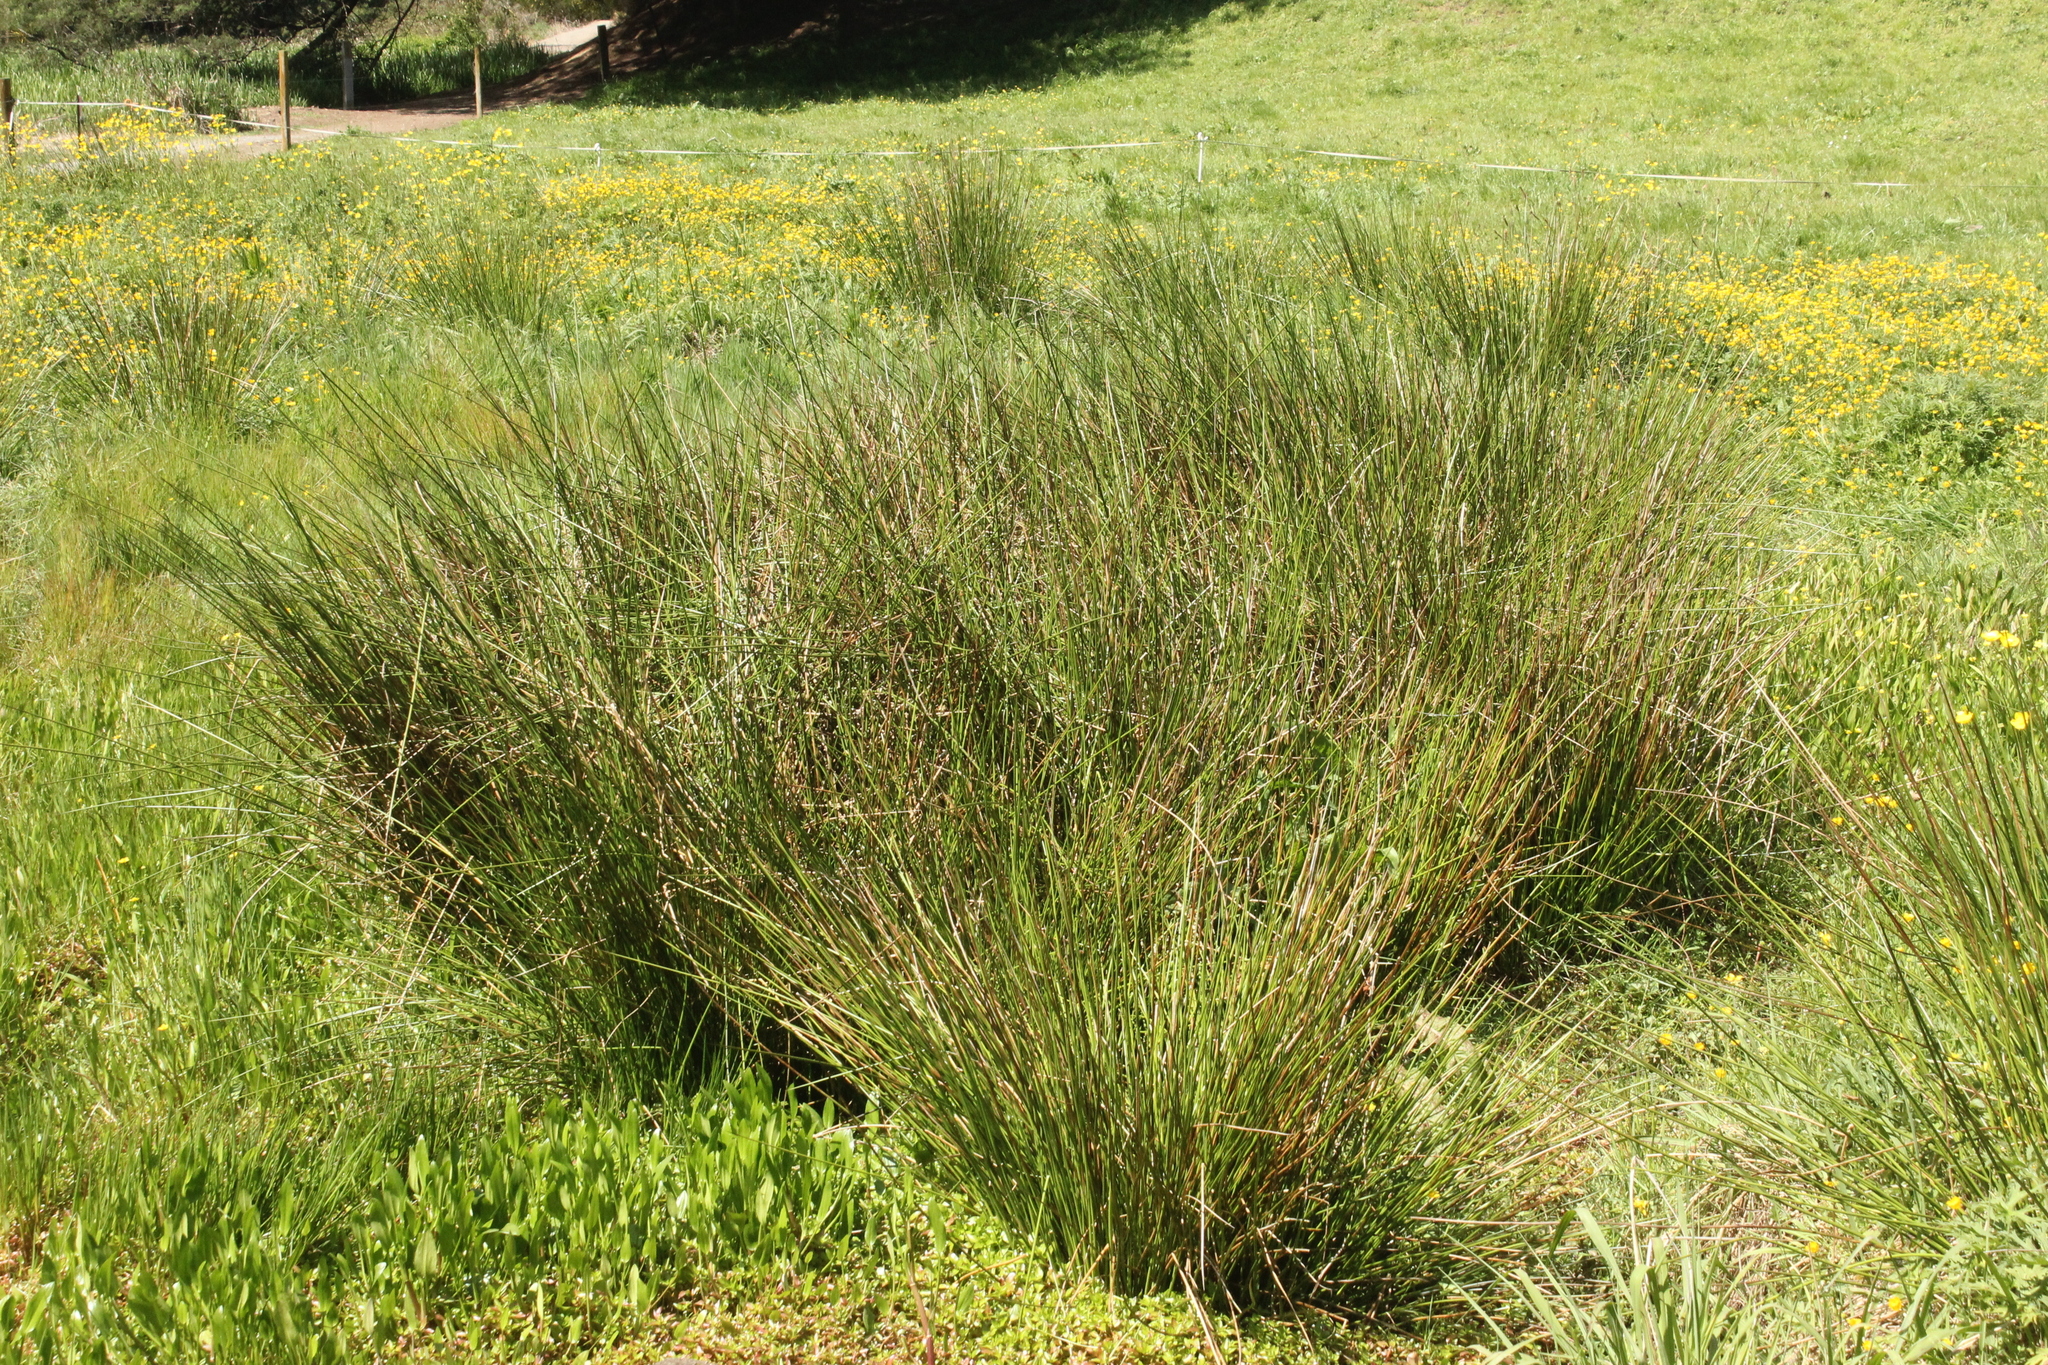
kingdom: Plantae
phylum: Tracheophyta
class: Liliopsida
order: Poales
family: Juncaceae
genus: Juncus
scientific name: Juncus effusus
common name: Soft rush
